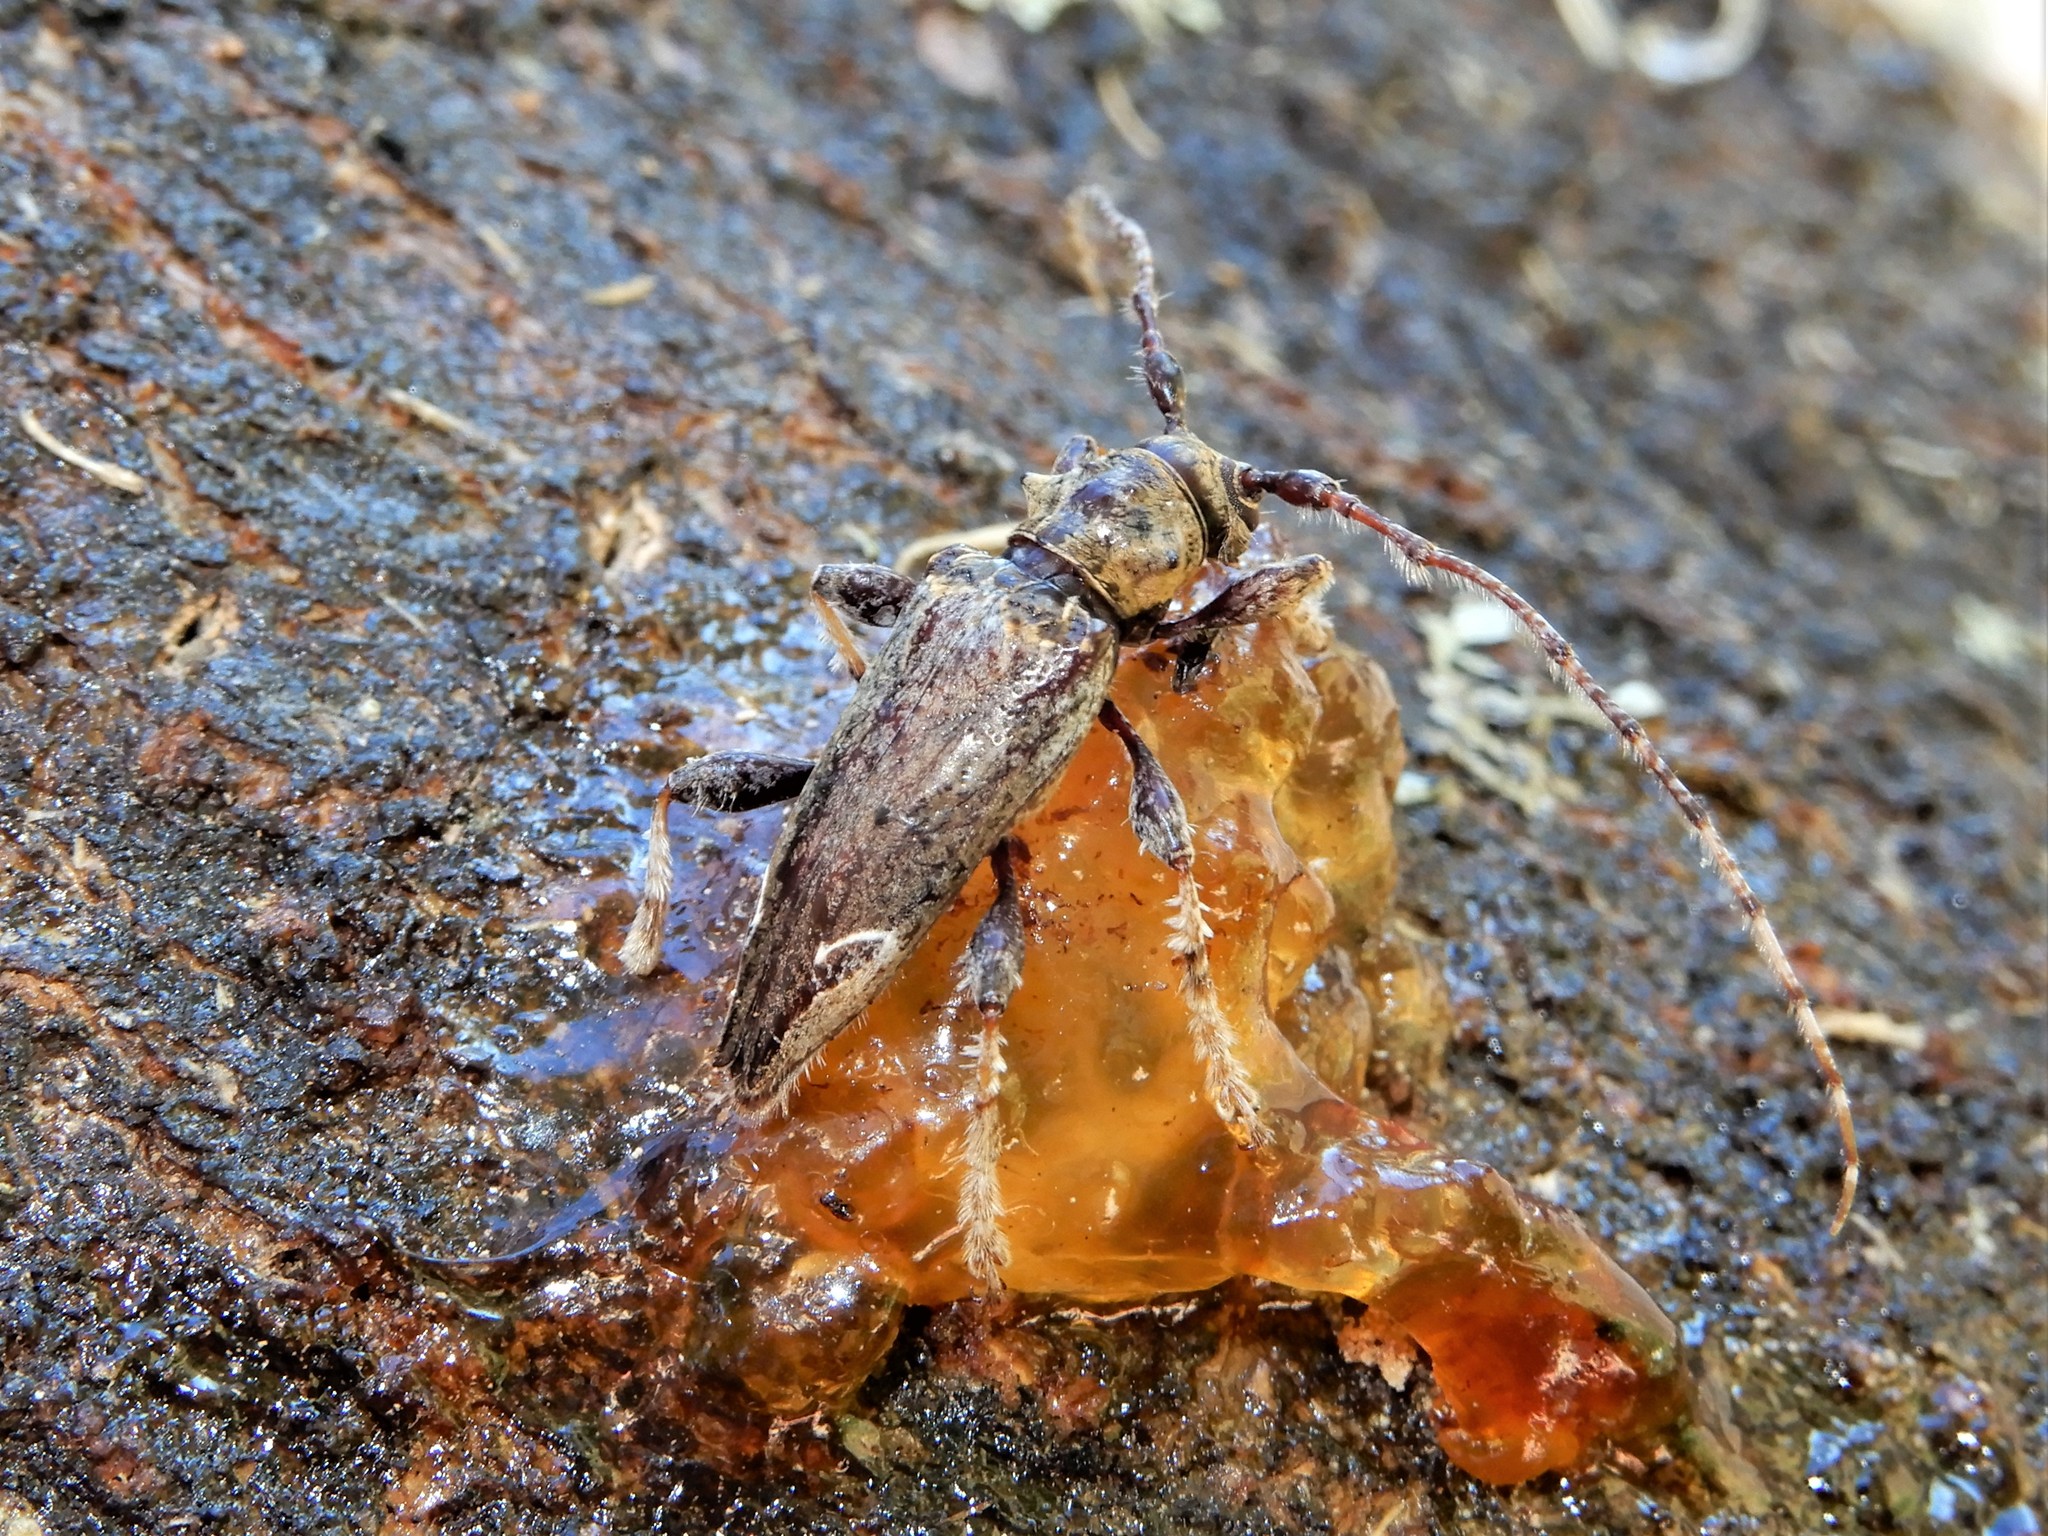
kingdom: Animalia
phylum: Arthropoda
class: Insecta
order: Coleoptera
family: Cerambycidae
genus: Tetrorea
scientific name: Tetrorea cilipes
